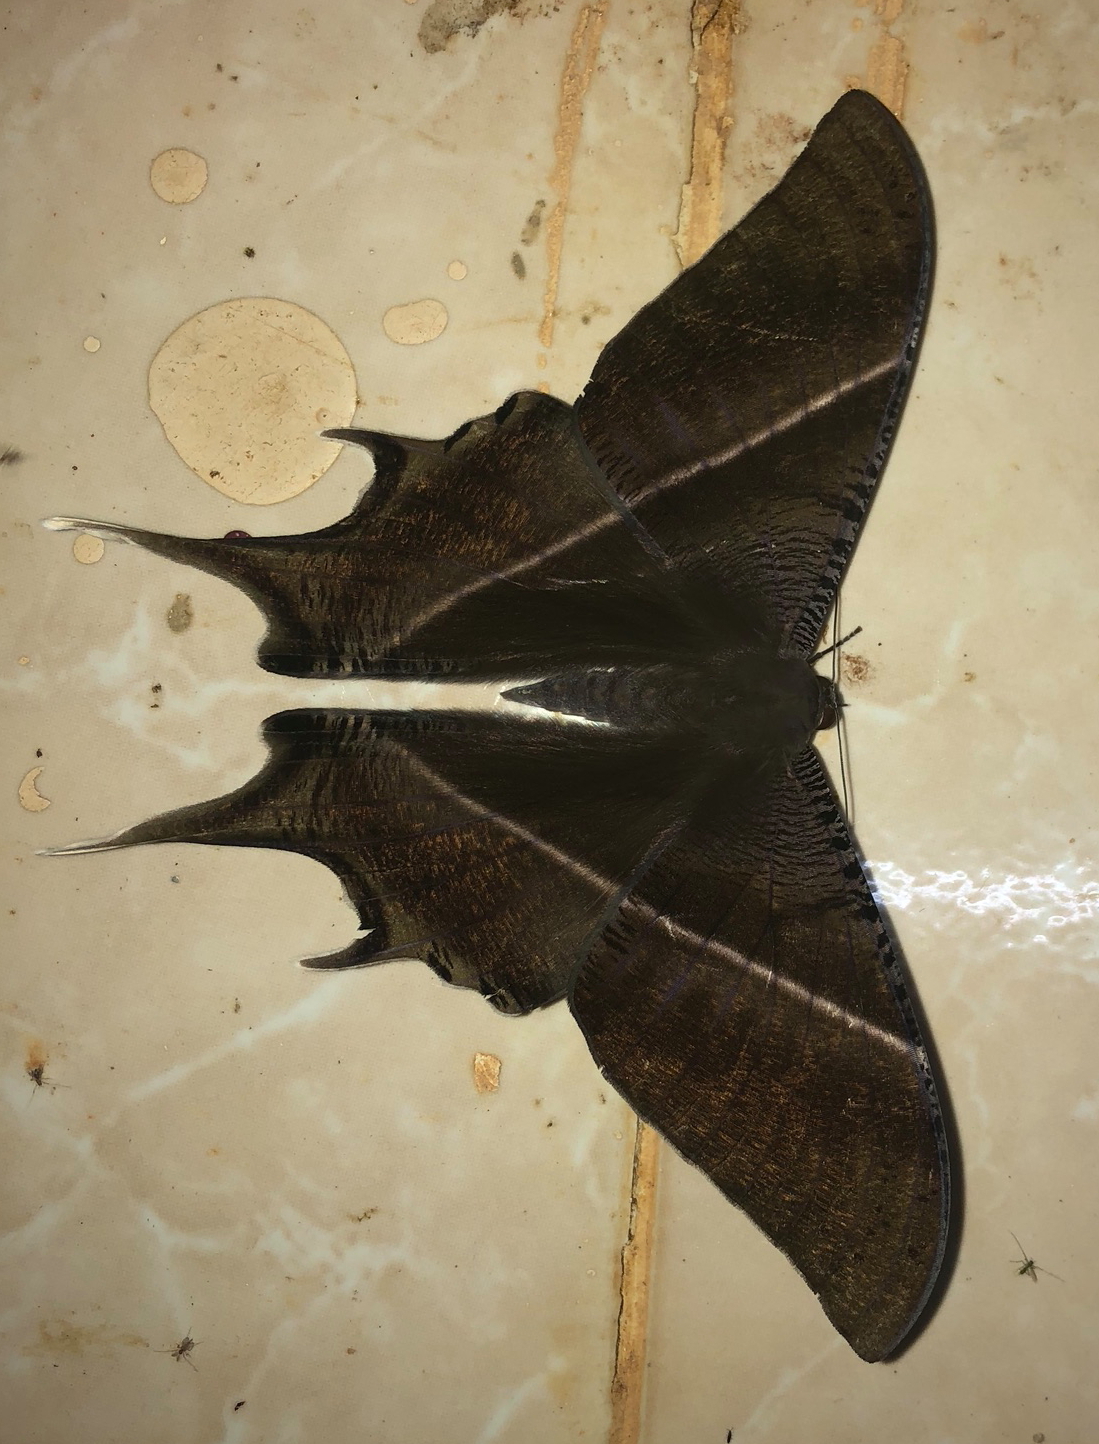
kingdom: Animalia
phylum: Arthropoda
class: Insecta
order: Lepidoptera
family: Uraniidae
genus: Lyssa
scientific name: Lyssa zampa
